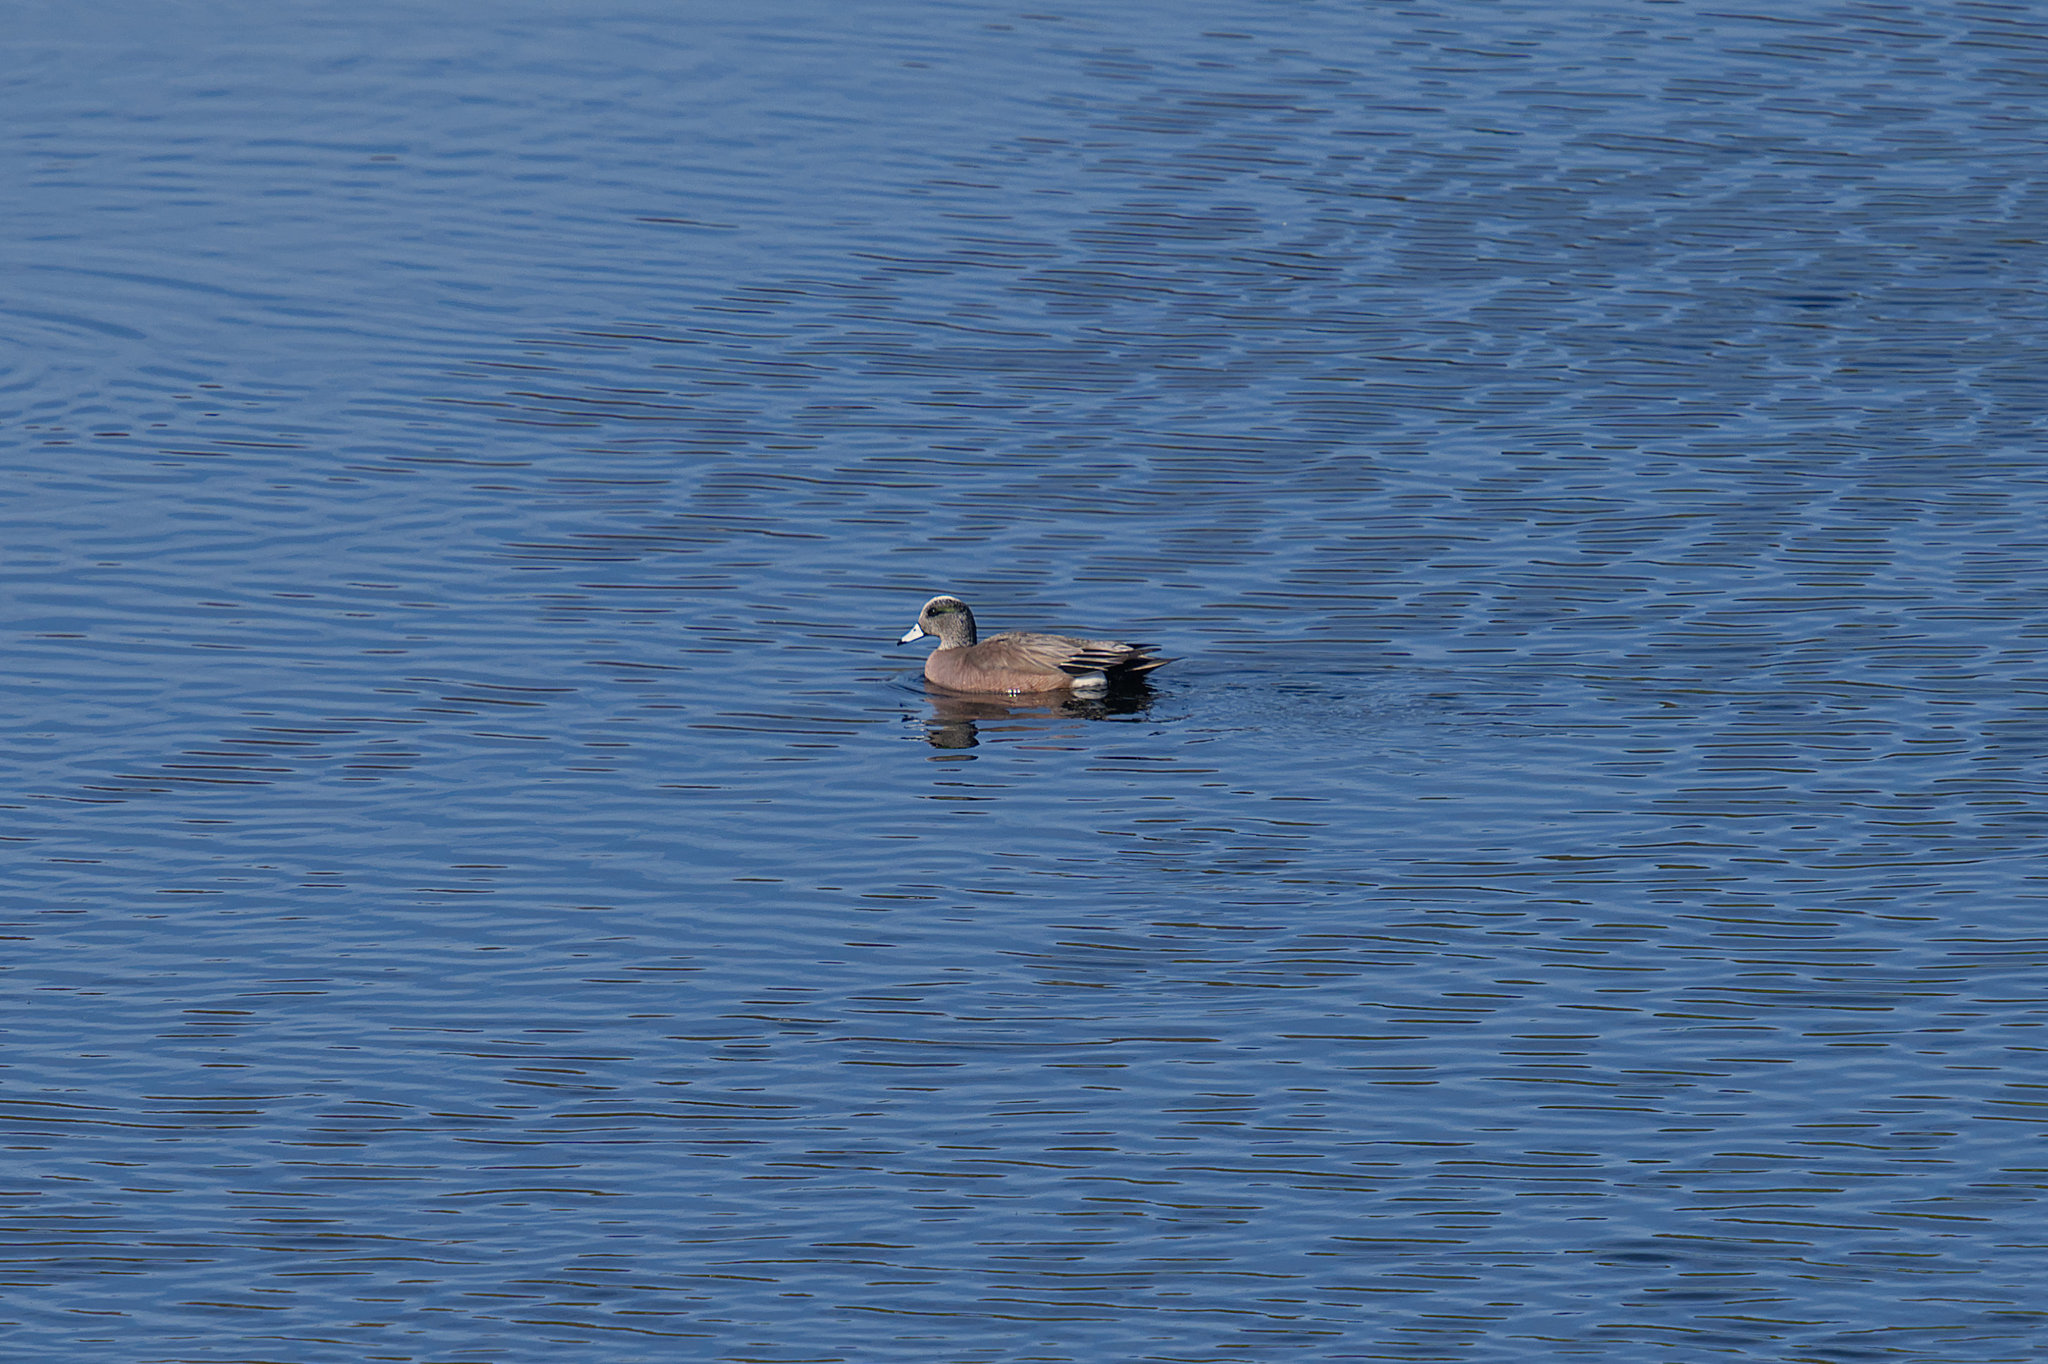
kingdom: Animalia
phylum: Chordata
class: Aves
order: Anseriformes
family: Anatidae
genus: Mareca
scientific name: Mareca americana
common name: American wigeon
